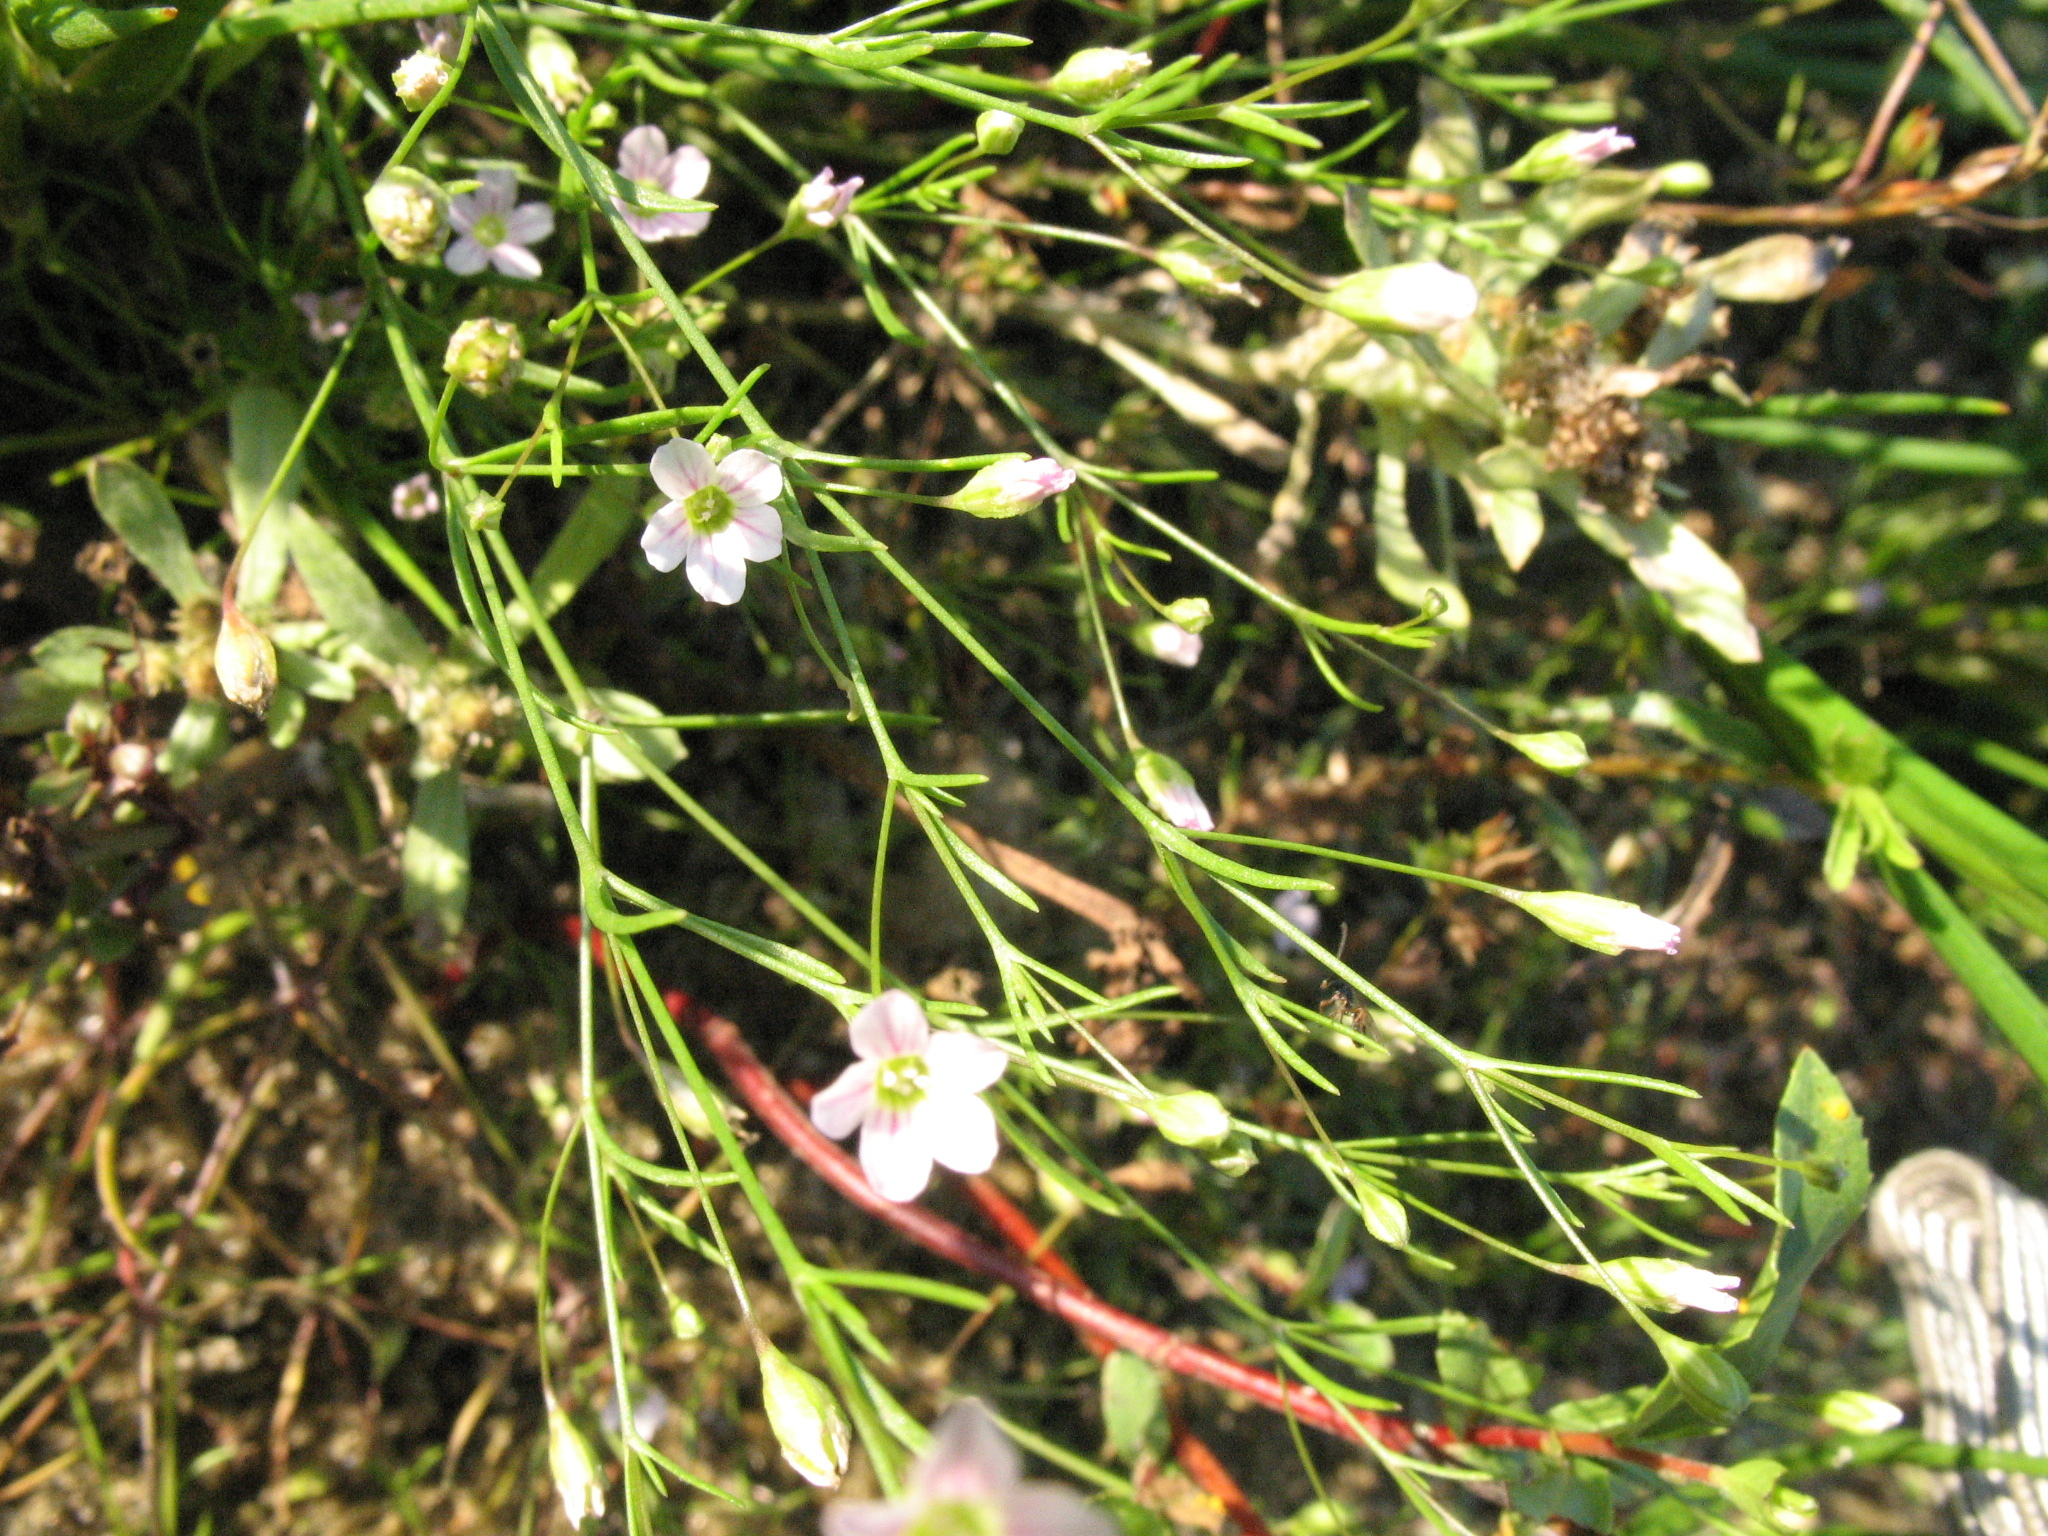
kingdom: Plantae
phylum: Tracheophyta
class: Magnoliopsida
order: Caryophyllales
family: Caryophyllaceae
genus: Psammophiliella
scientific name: Psammophiliella muralis
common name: Cushion baby's-breath
